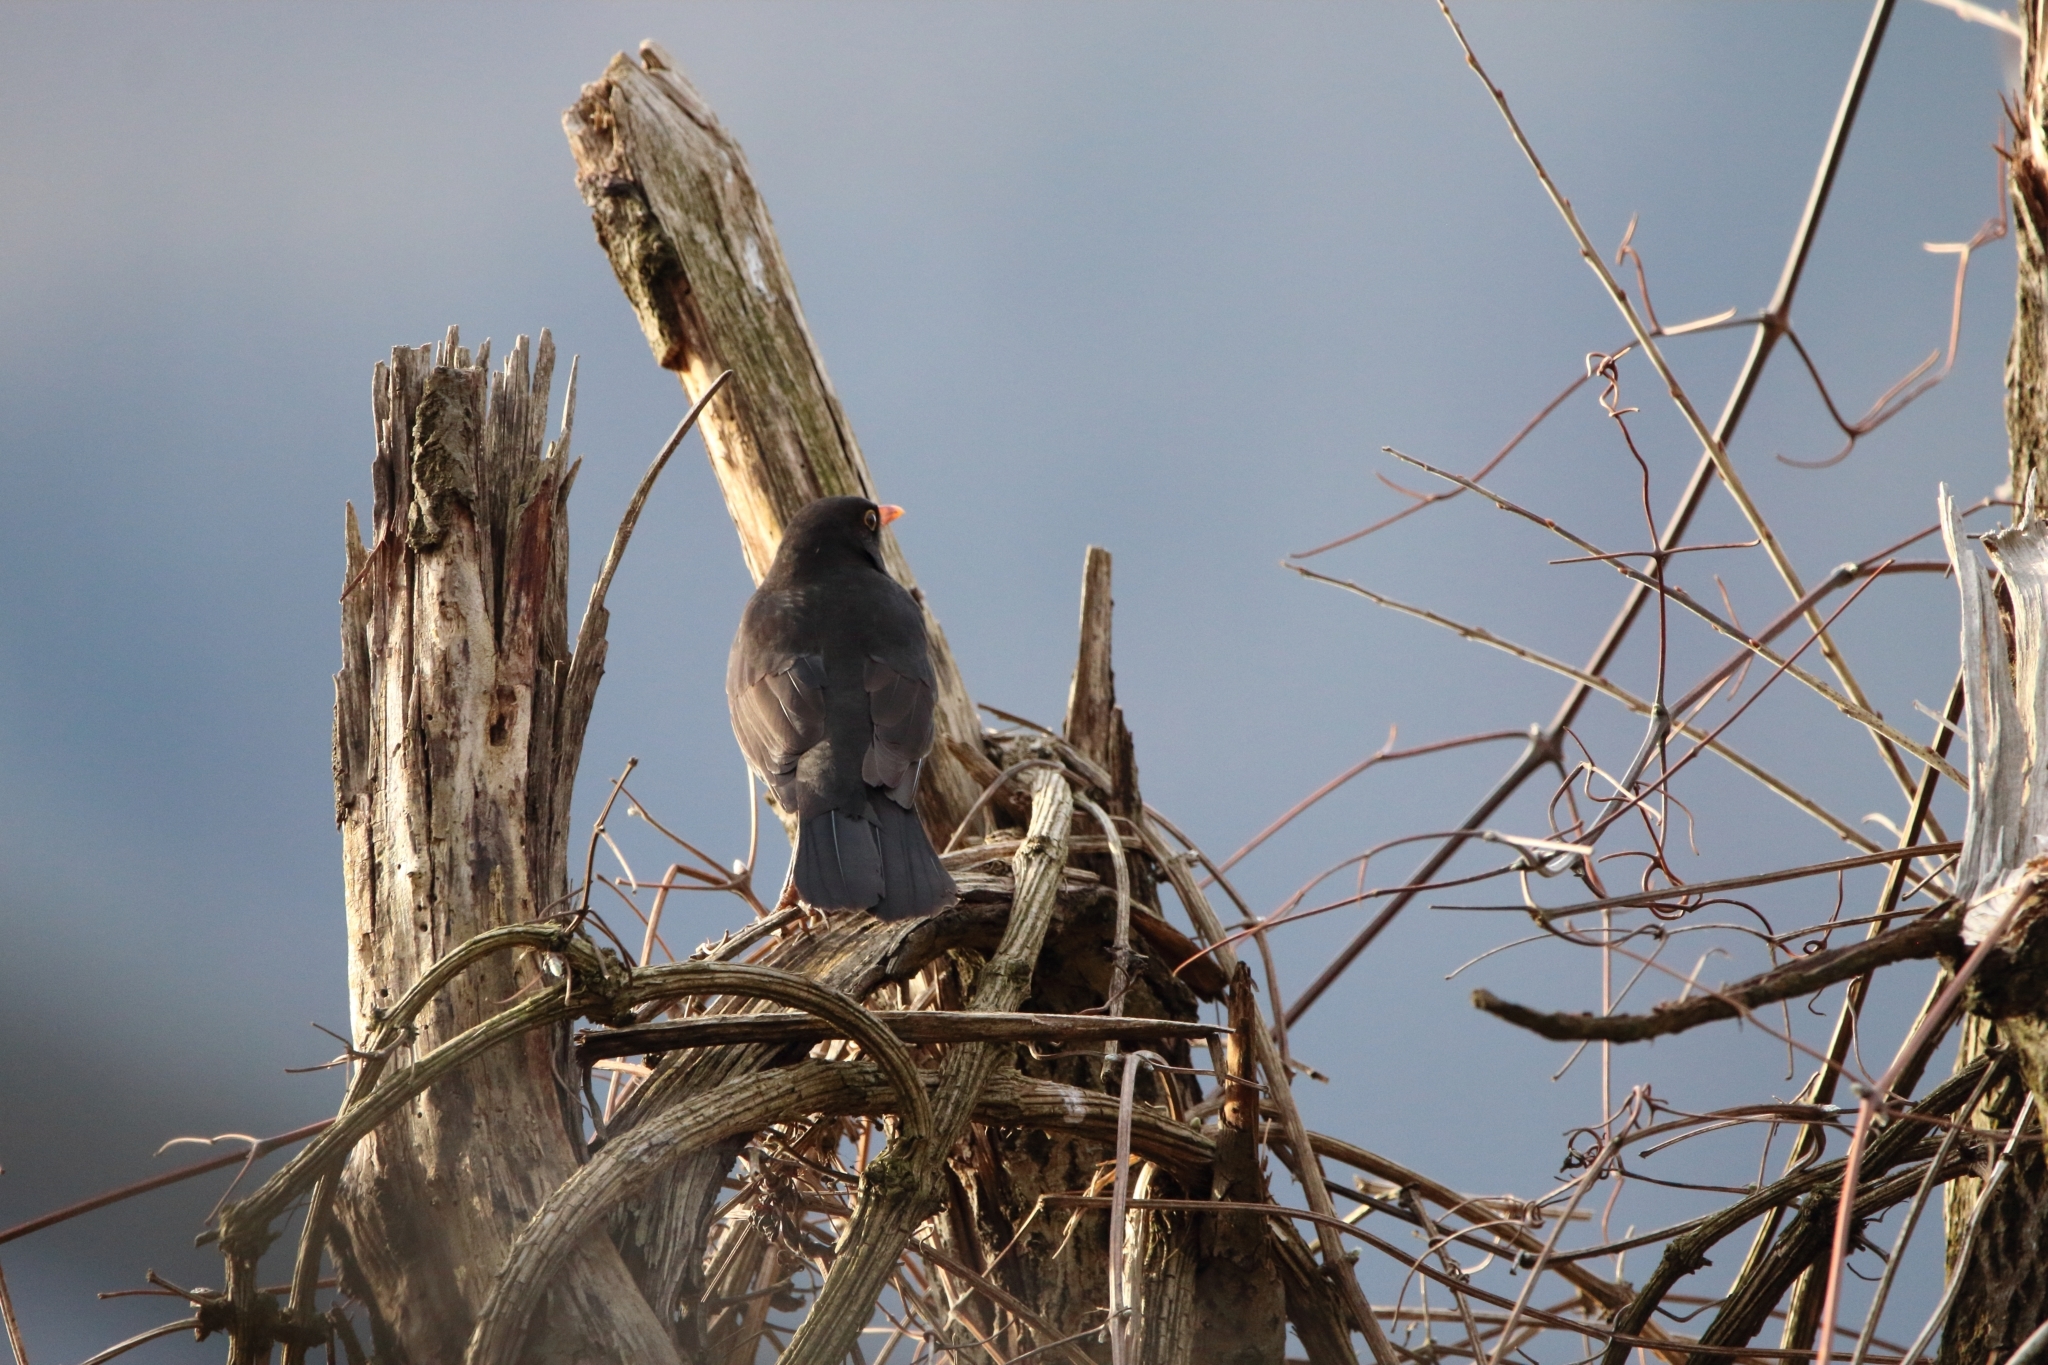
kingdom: Animalia
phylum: Chordata
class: Aves
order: Passeriformes
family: Turdidae
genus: Turdus
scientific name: Turdus merula
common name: Common blackbird
